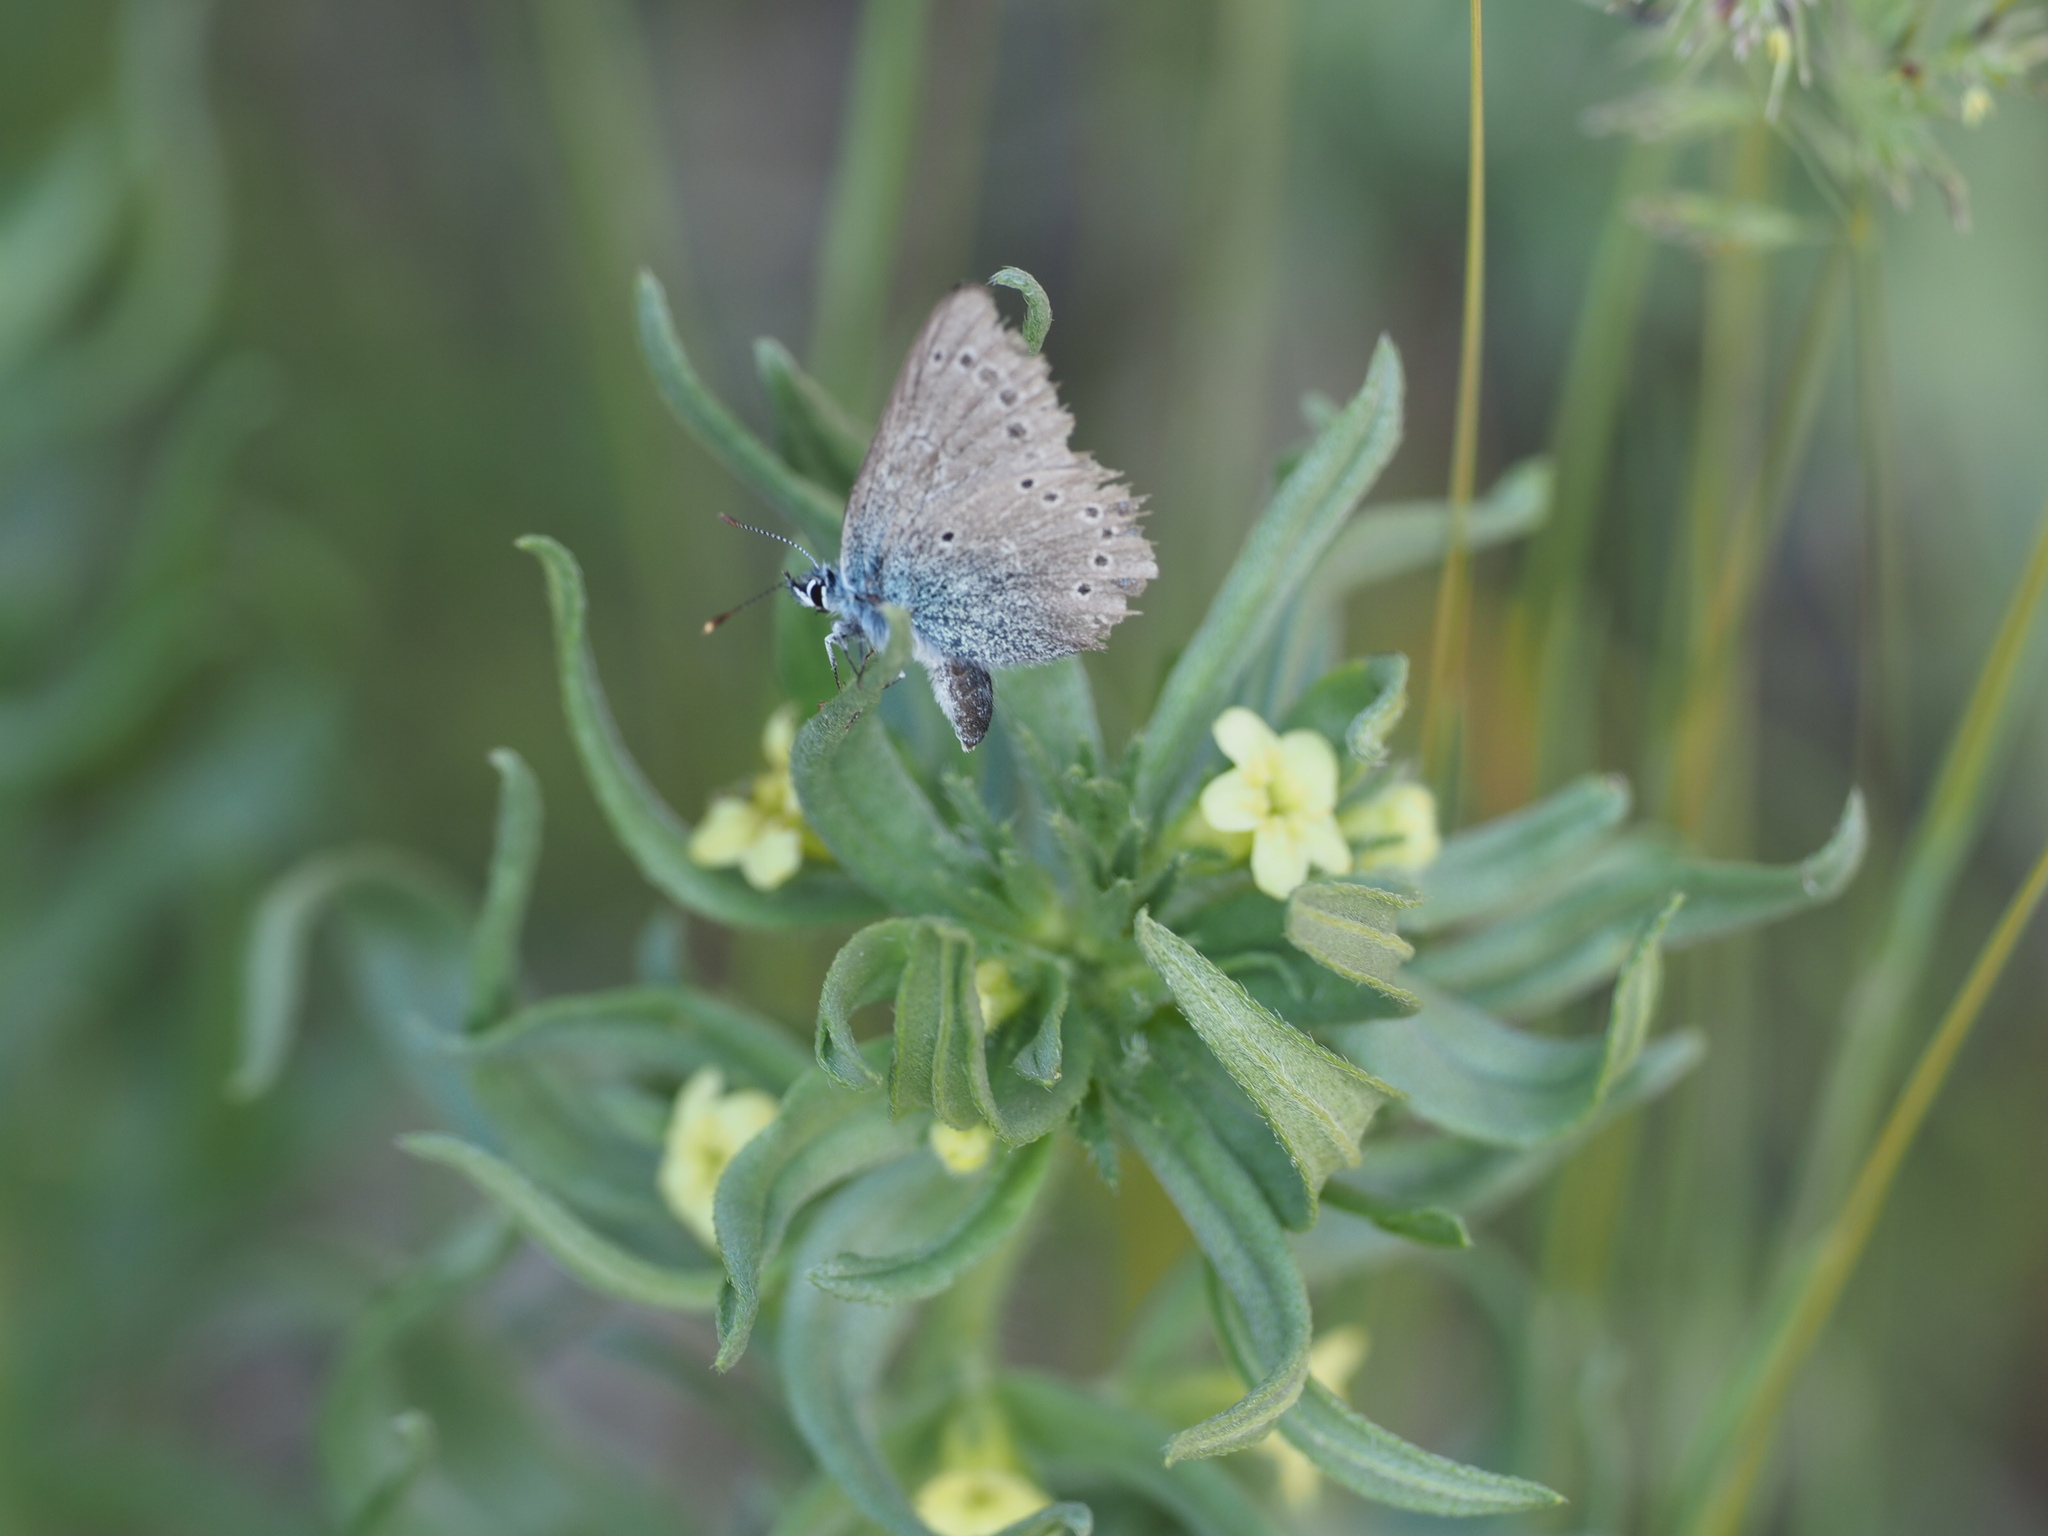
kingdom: Animalia
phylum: Arthropoda
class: Insecta
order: Lepidoptera
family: Lycaenidae
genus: Glaucopsyche
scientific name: Glaucopsyche lygdamus
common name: Silvery blue
